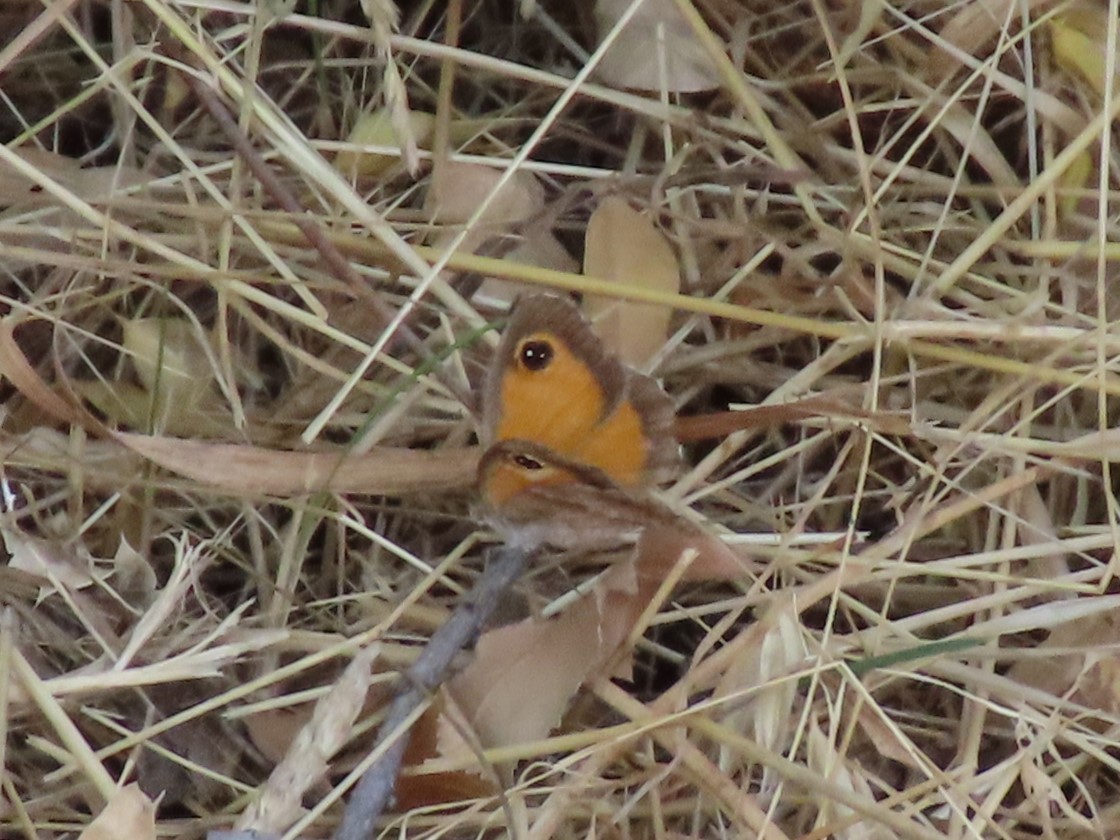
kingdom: Animalia
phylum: Arthropoda
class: Insecta
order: Lepidoptera
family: Nymphalidae
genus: Pyronia
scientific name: Pyronia cecilia
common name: Southern gatekeeper
